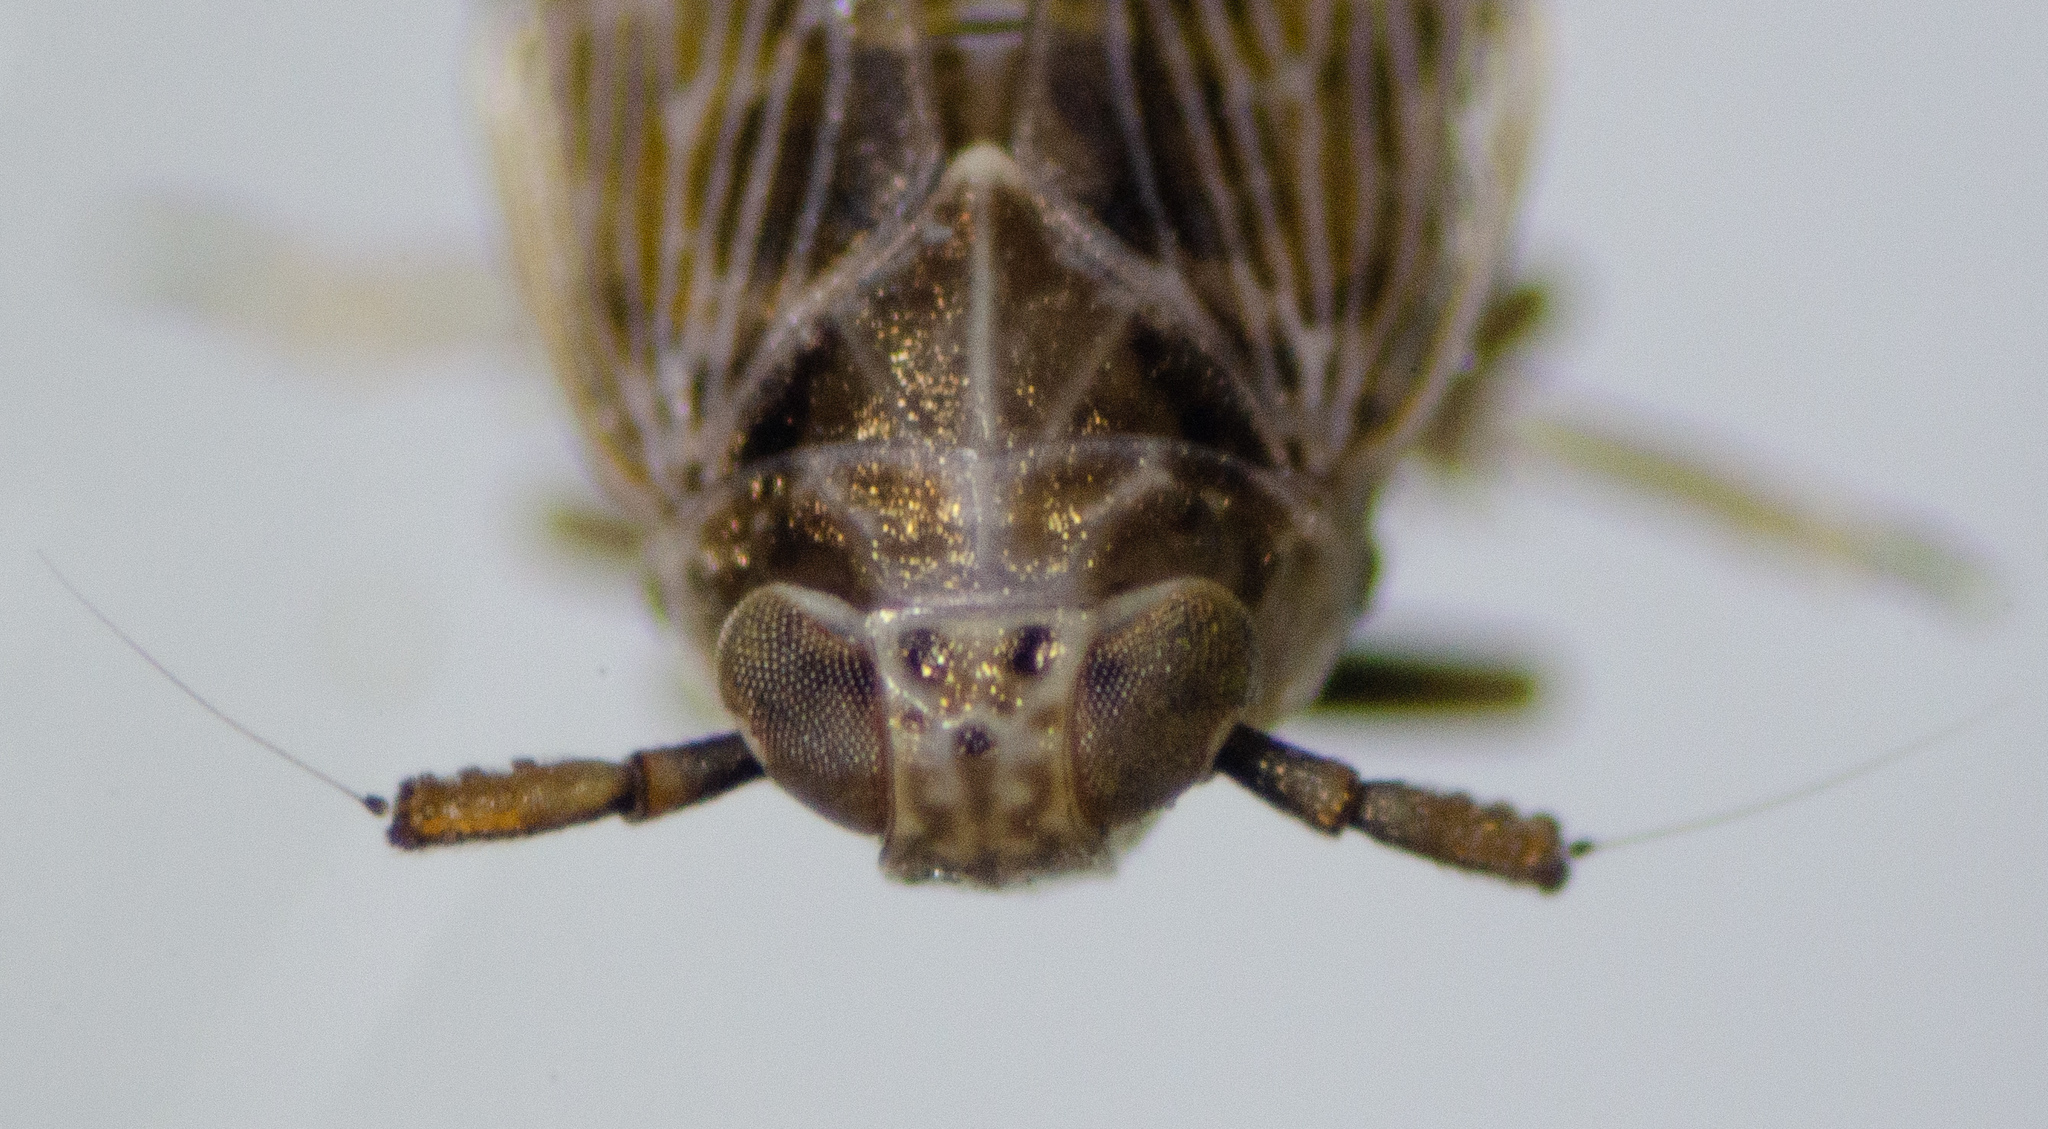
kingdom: Animalia
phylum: Arthropoda
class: Insecta
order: Hemiptera
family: Delphacidae
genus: Pissonotus
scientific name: Pissonotus albovenosus
